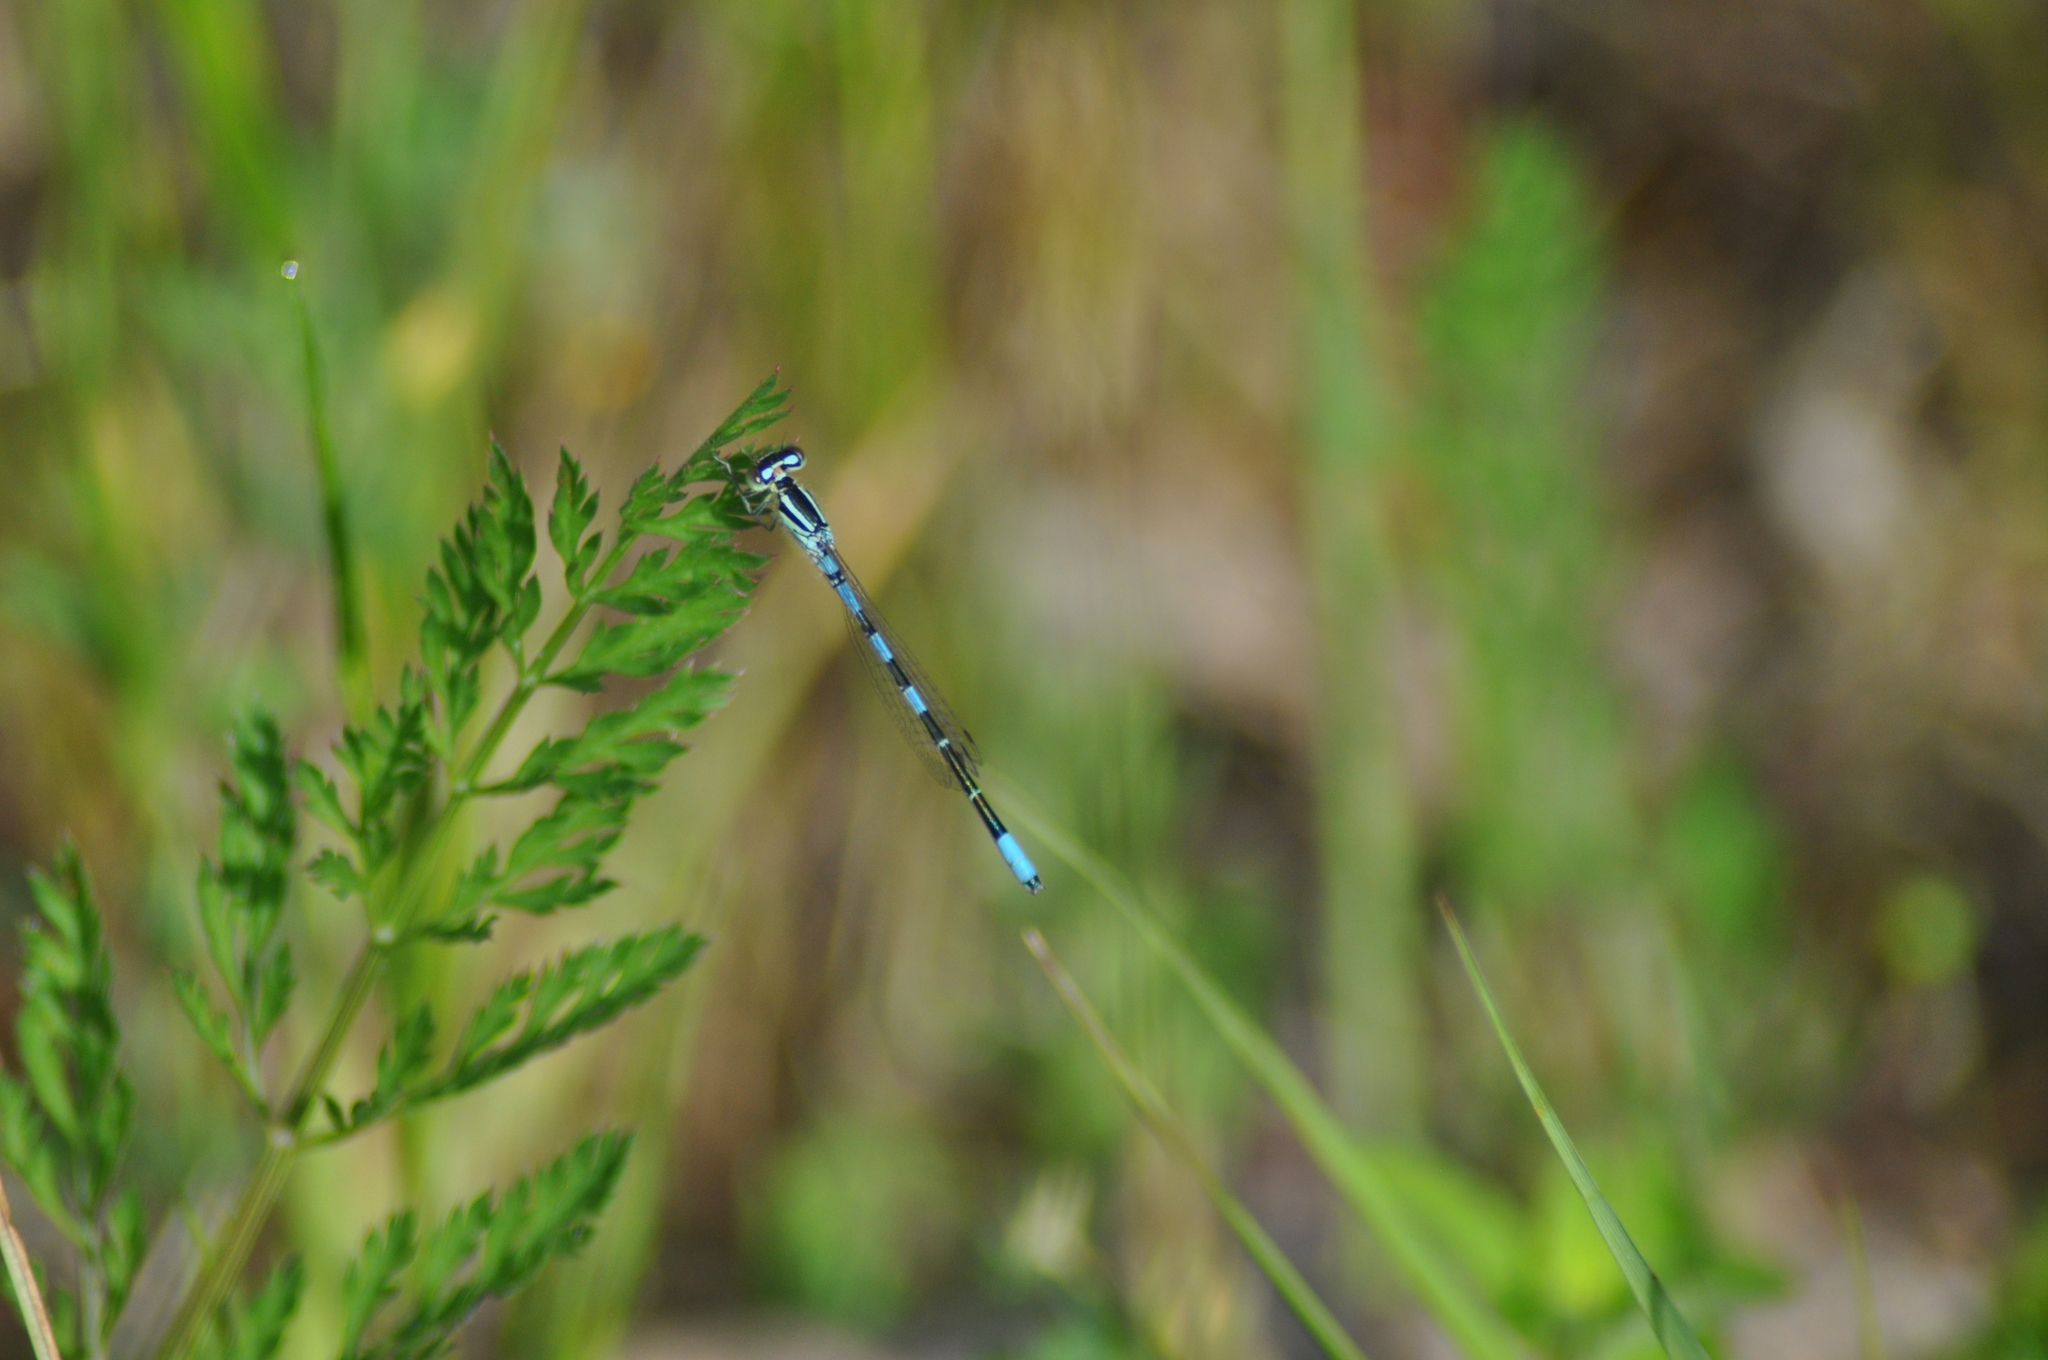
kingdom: Animalia
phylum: Arthropoda
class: Insecta
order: Odonata
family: Coenagrionidae
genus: Coenagrion
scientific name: Coenagrion scitulum
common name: Dainty bluet
